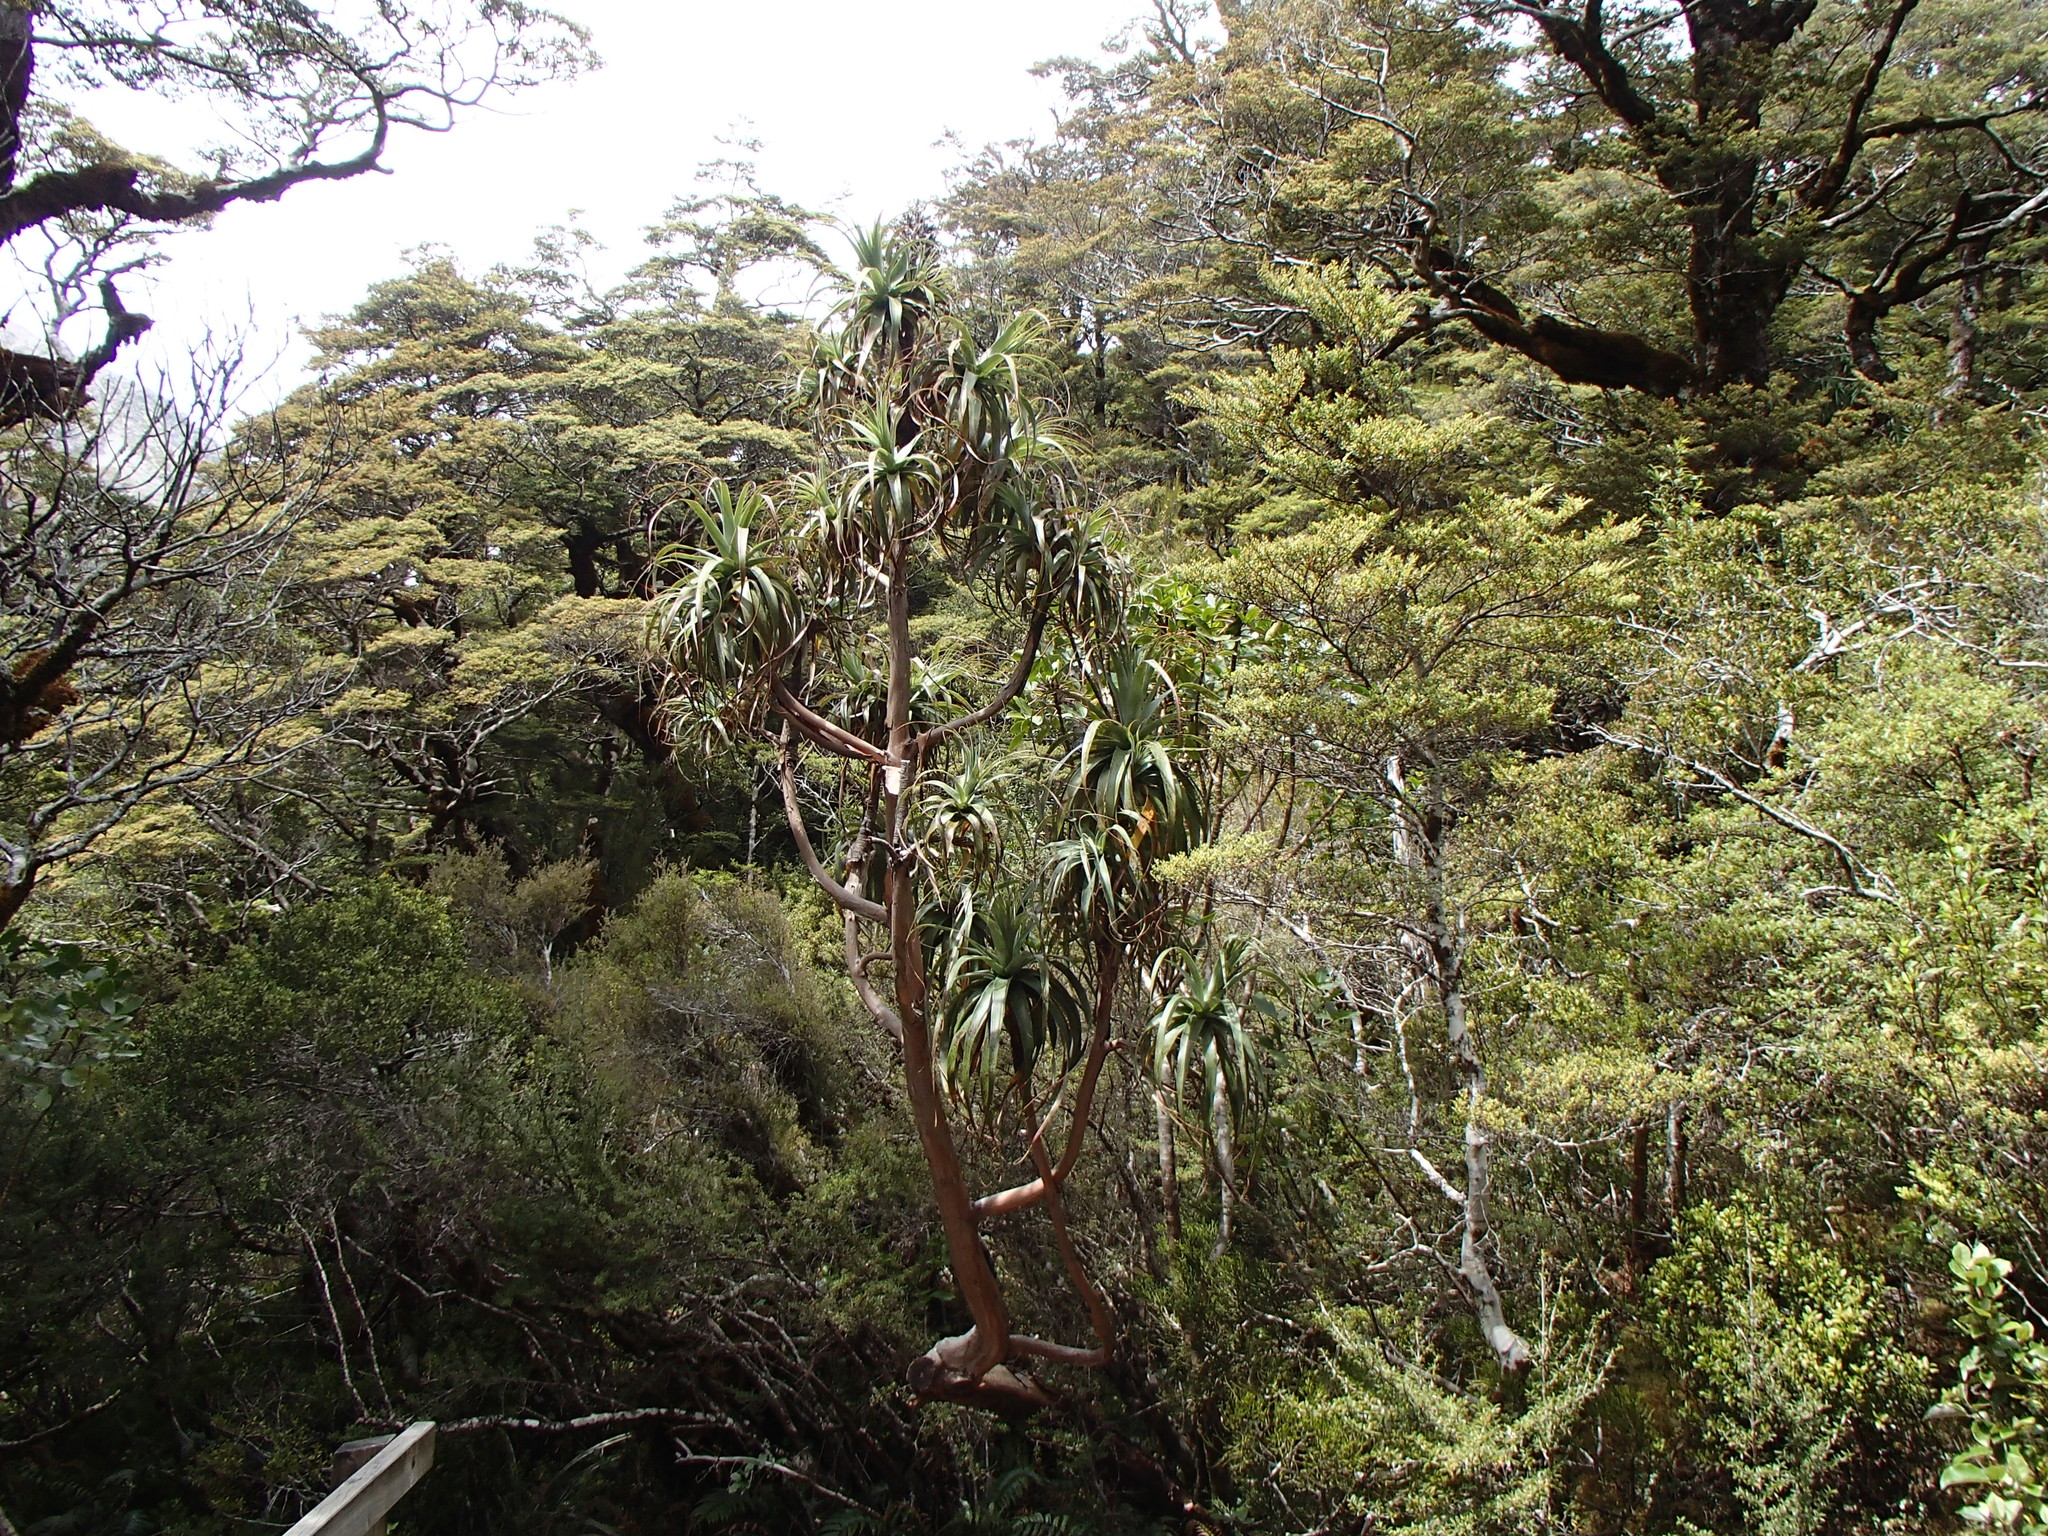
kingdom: Plantae
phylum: Tracheophyta
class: Magnoliopsida
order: Ericales
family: Ericaceae
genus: Dracophyllum
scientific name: Dracophyllum traversii
